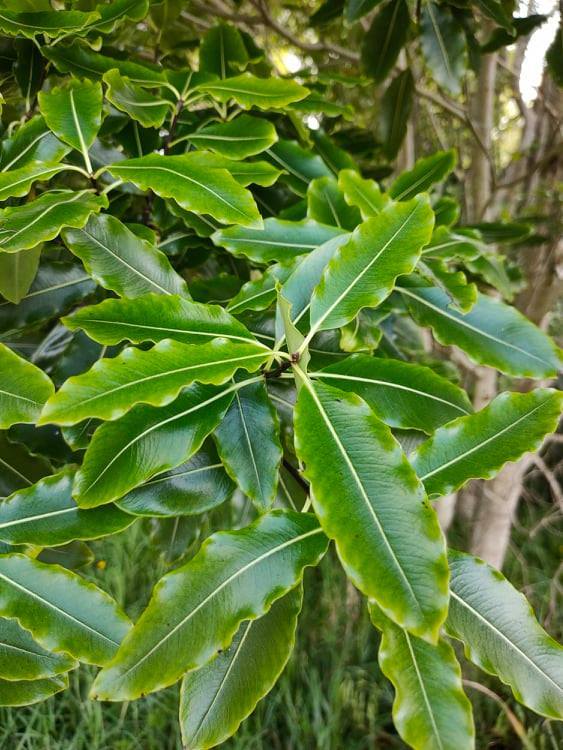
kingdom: Plantae
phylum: Tracheophyta
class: Magnoliopsida
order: Apiales
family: Pittosporaceae
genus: Pittosporum
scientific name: Pittosporum eugenioides
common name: Lemonwood
